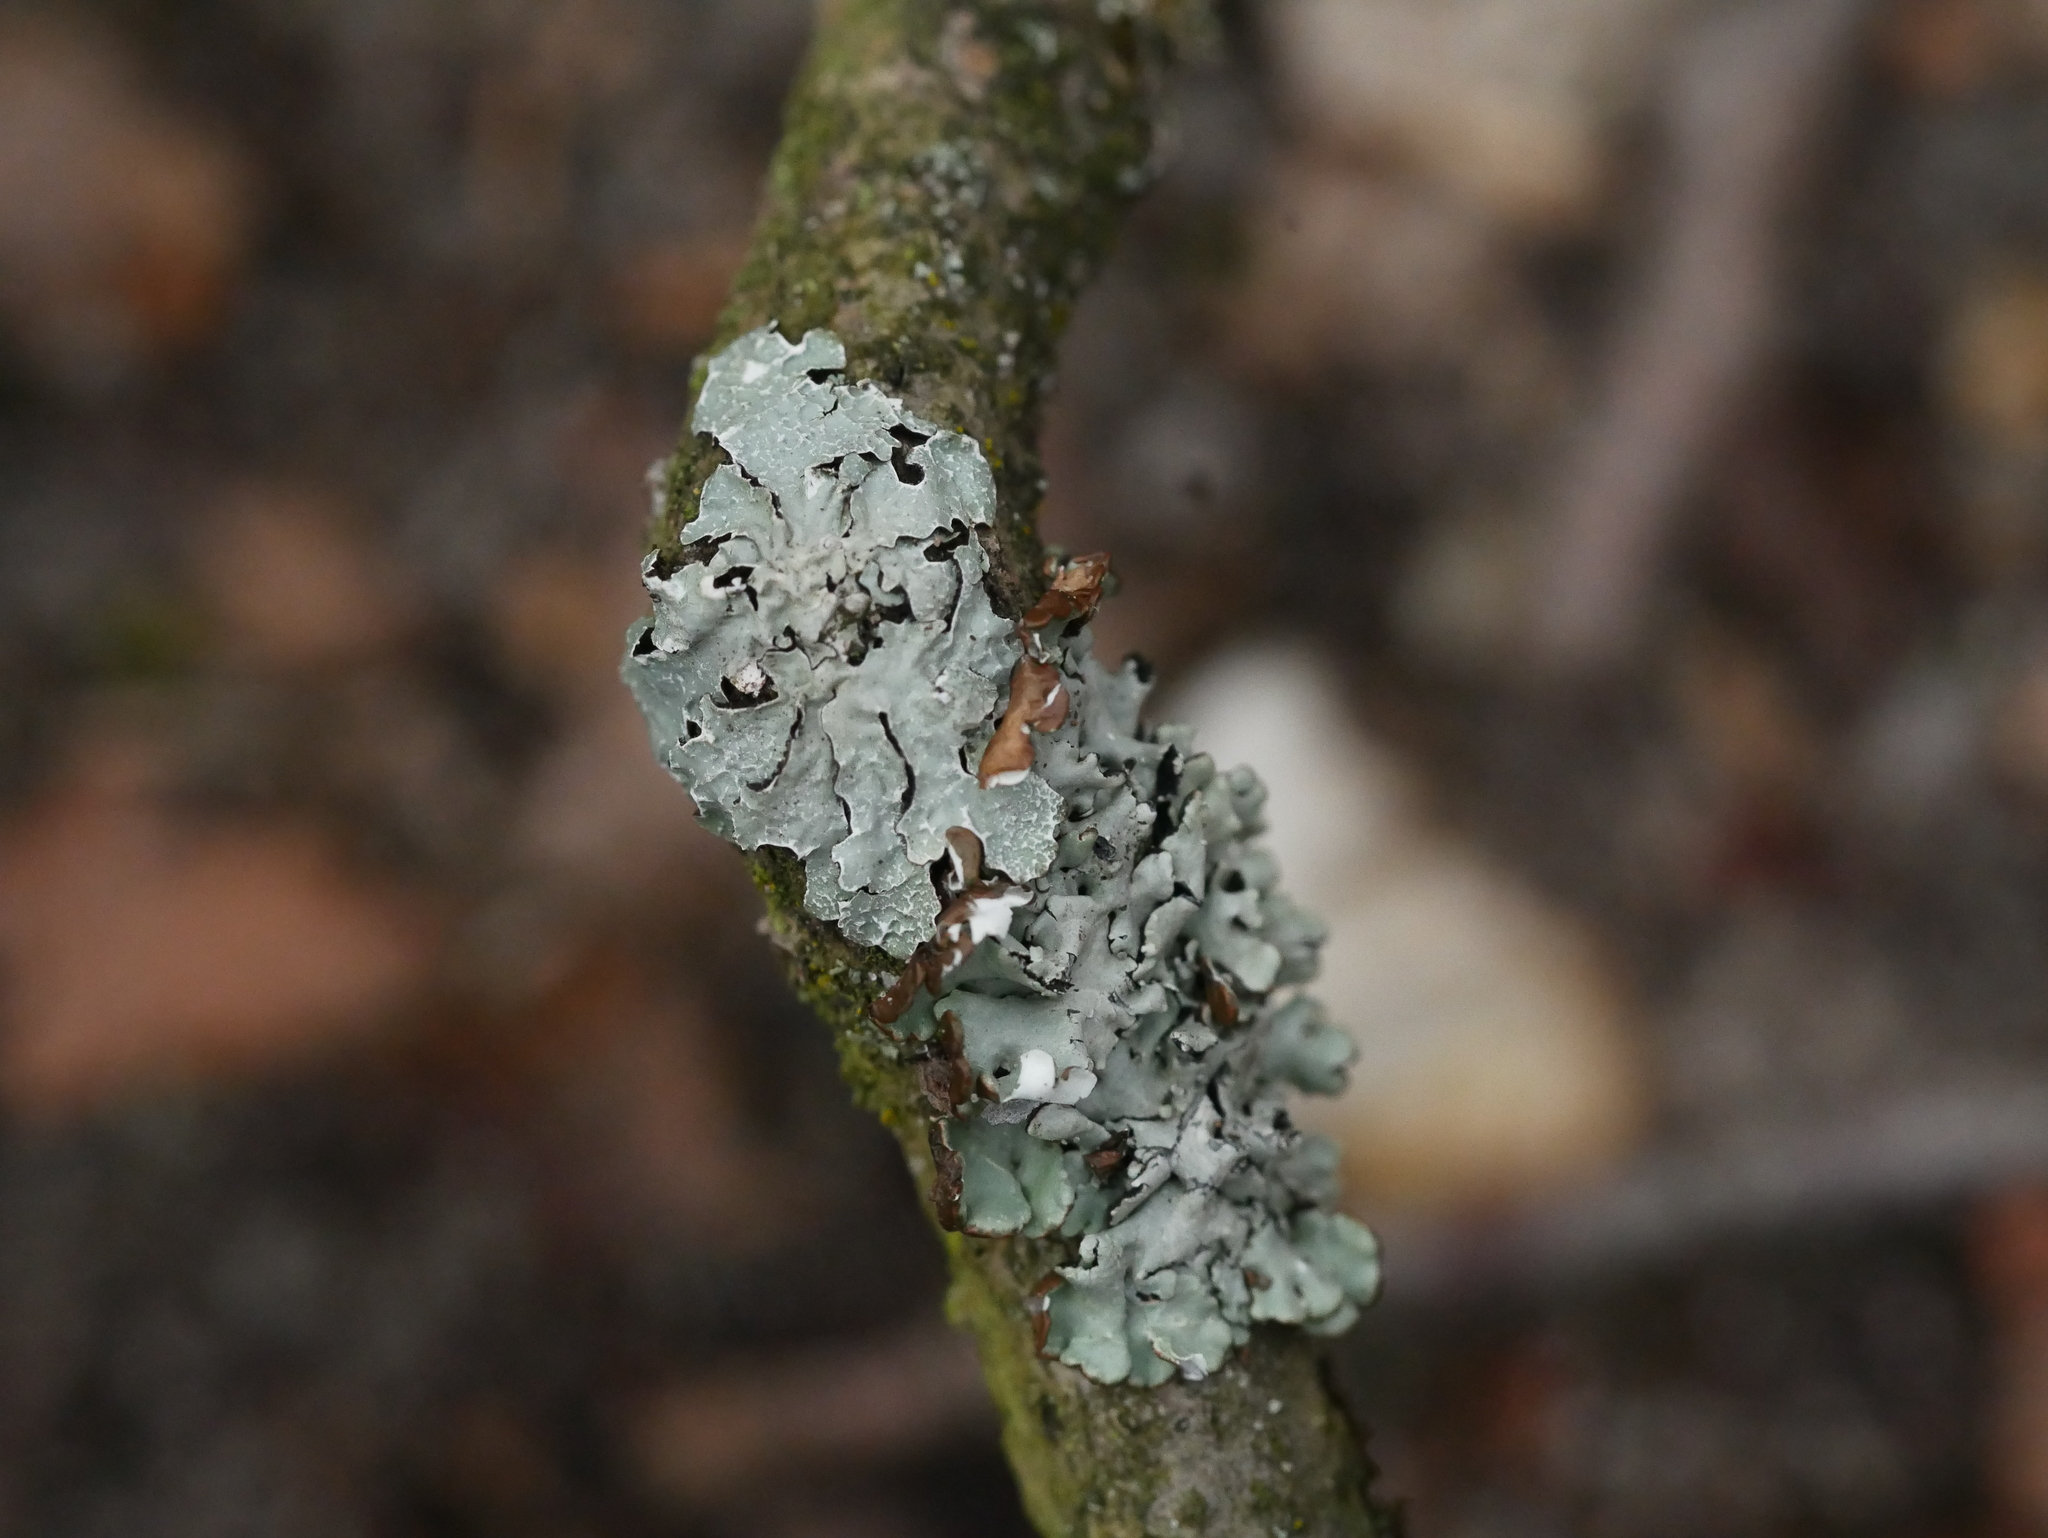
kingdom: Fungi
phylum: Ascomycota
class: Lecanoromycetes
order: Lecanorales
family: Parmeliaceae
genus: Parmelia
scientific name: Parmelia sulcata
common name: Netted shield lichen
